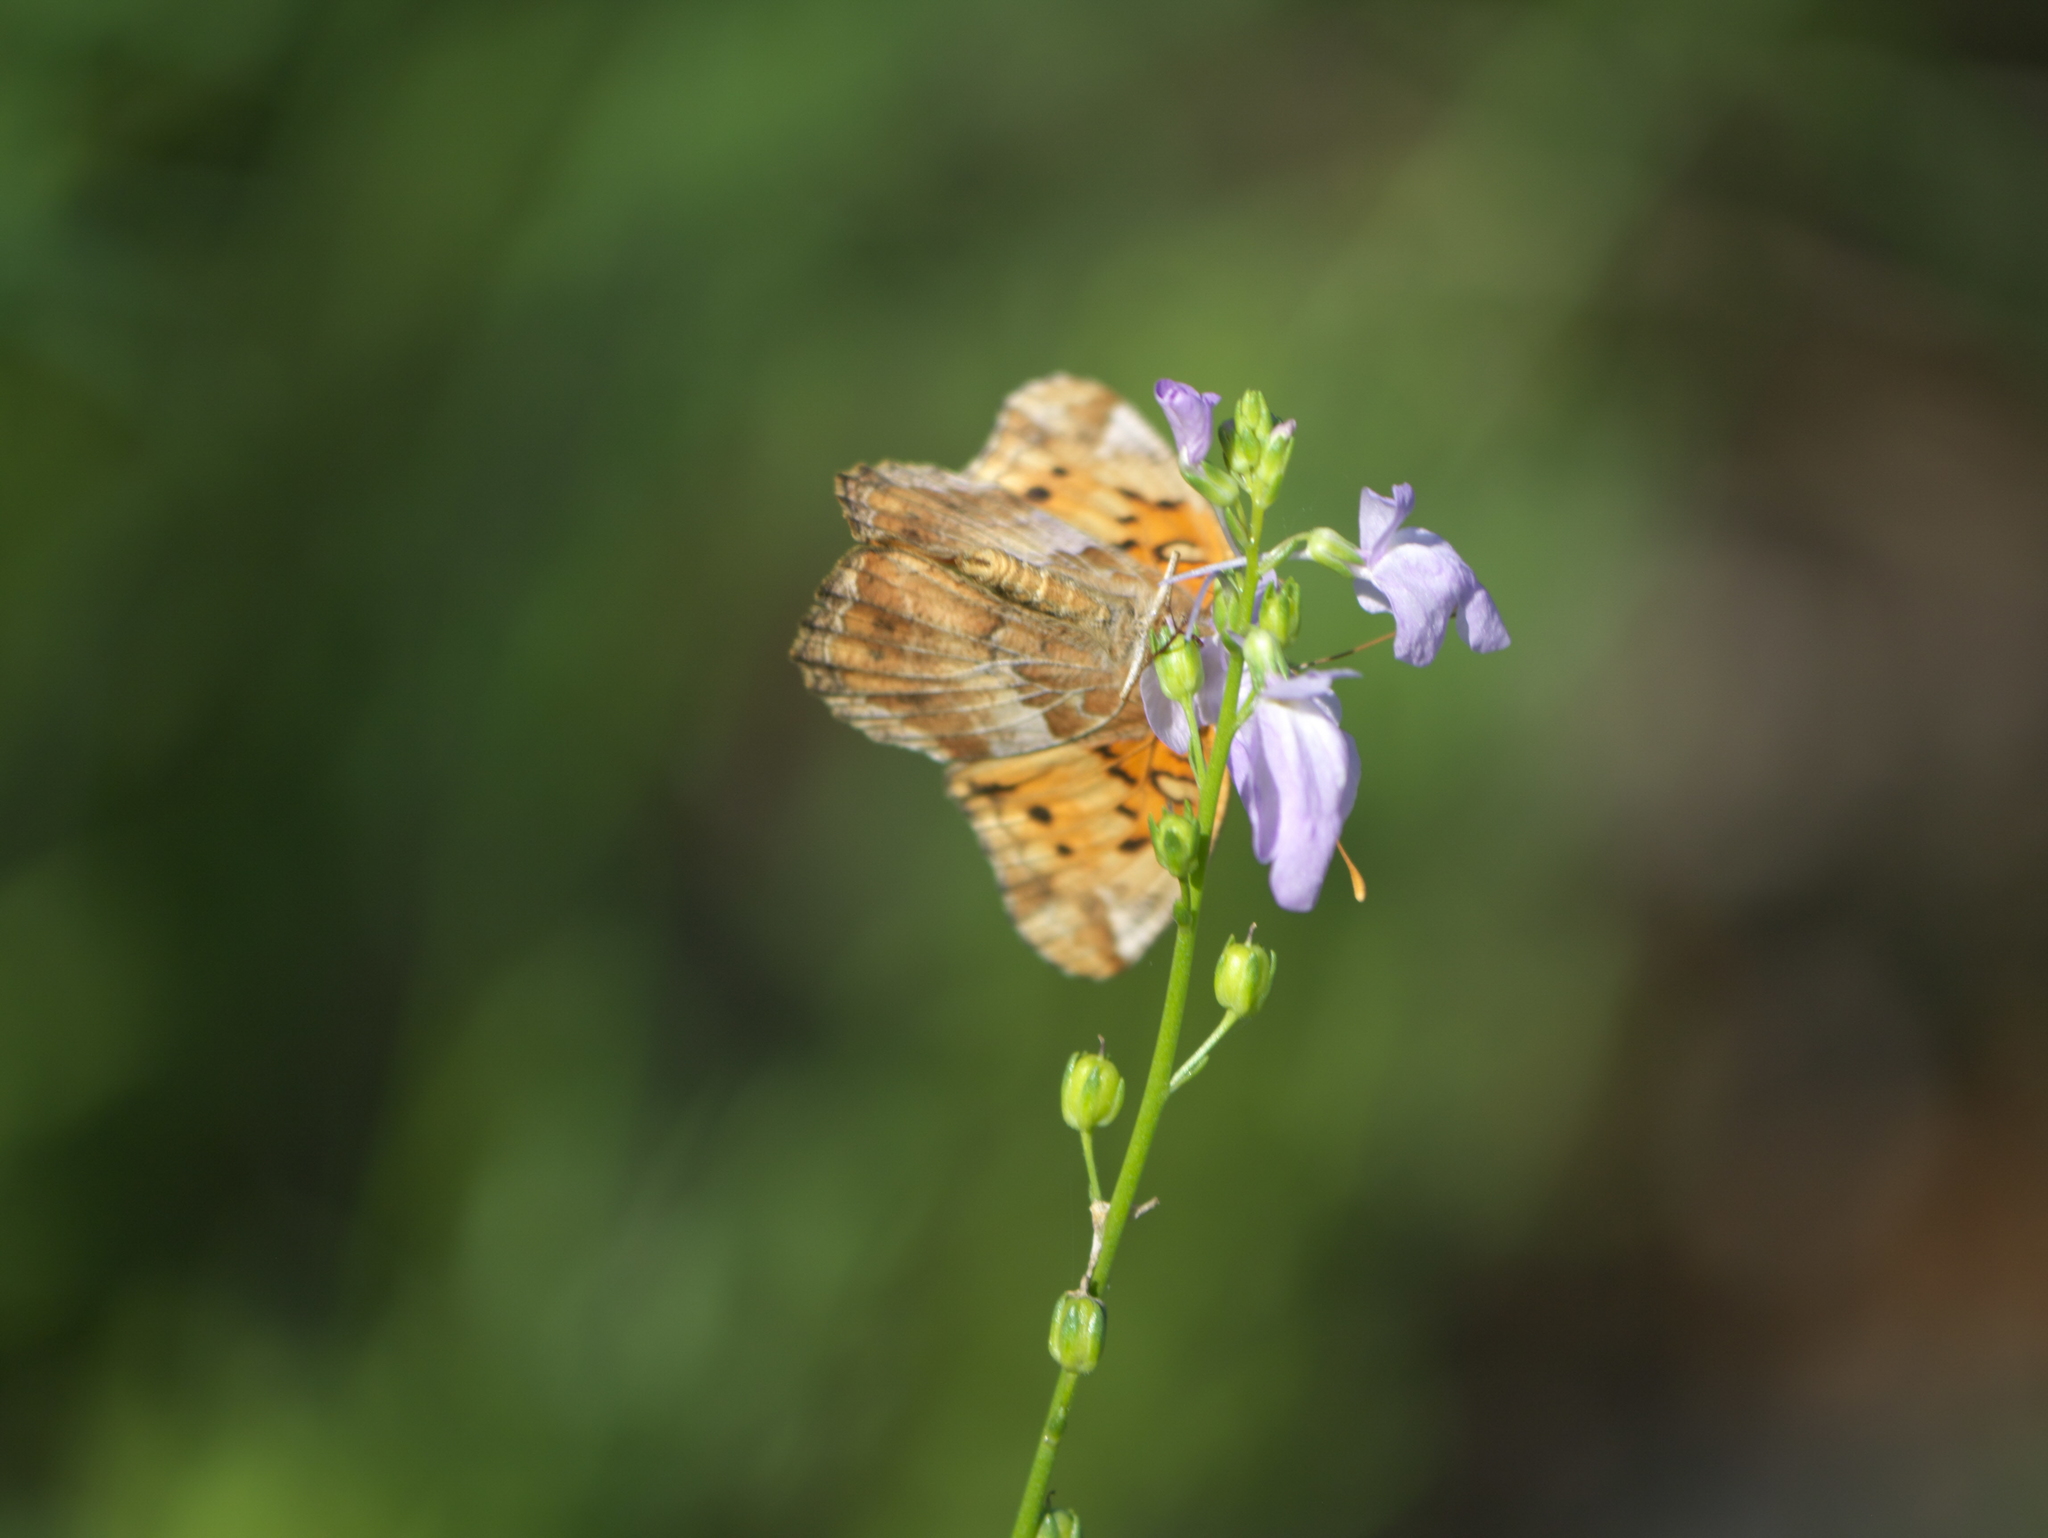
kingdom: Animalia
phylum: Arthropoda
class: Insecta
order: Lepidoptera
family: Nymphalidae
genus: Euptoieta
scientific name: Euptoieta claudia
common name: Variegated fritillary
